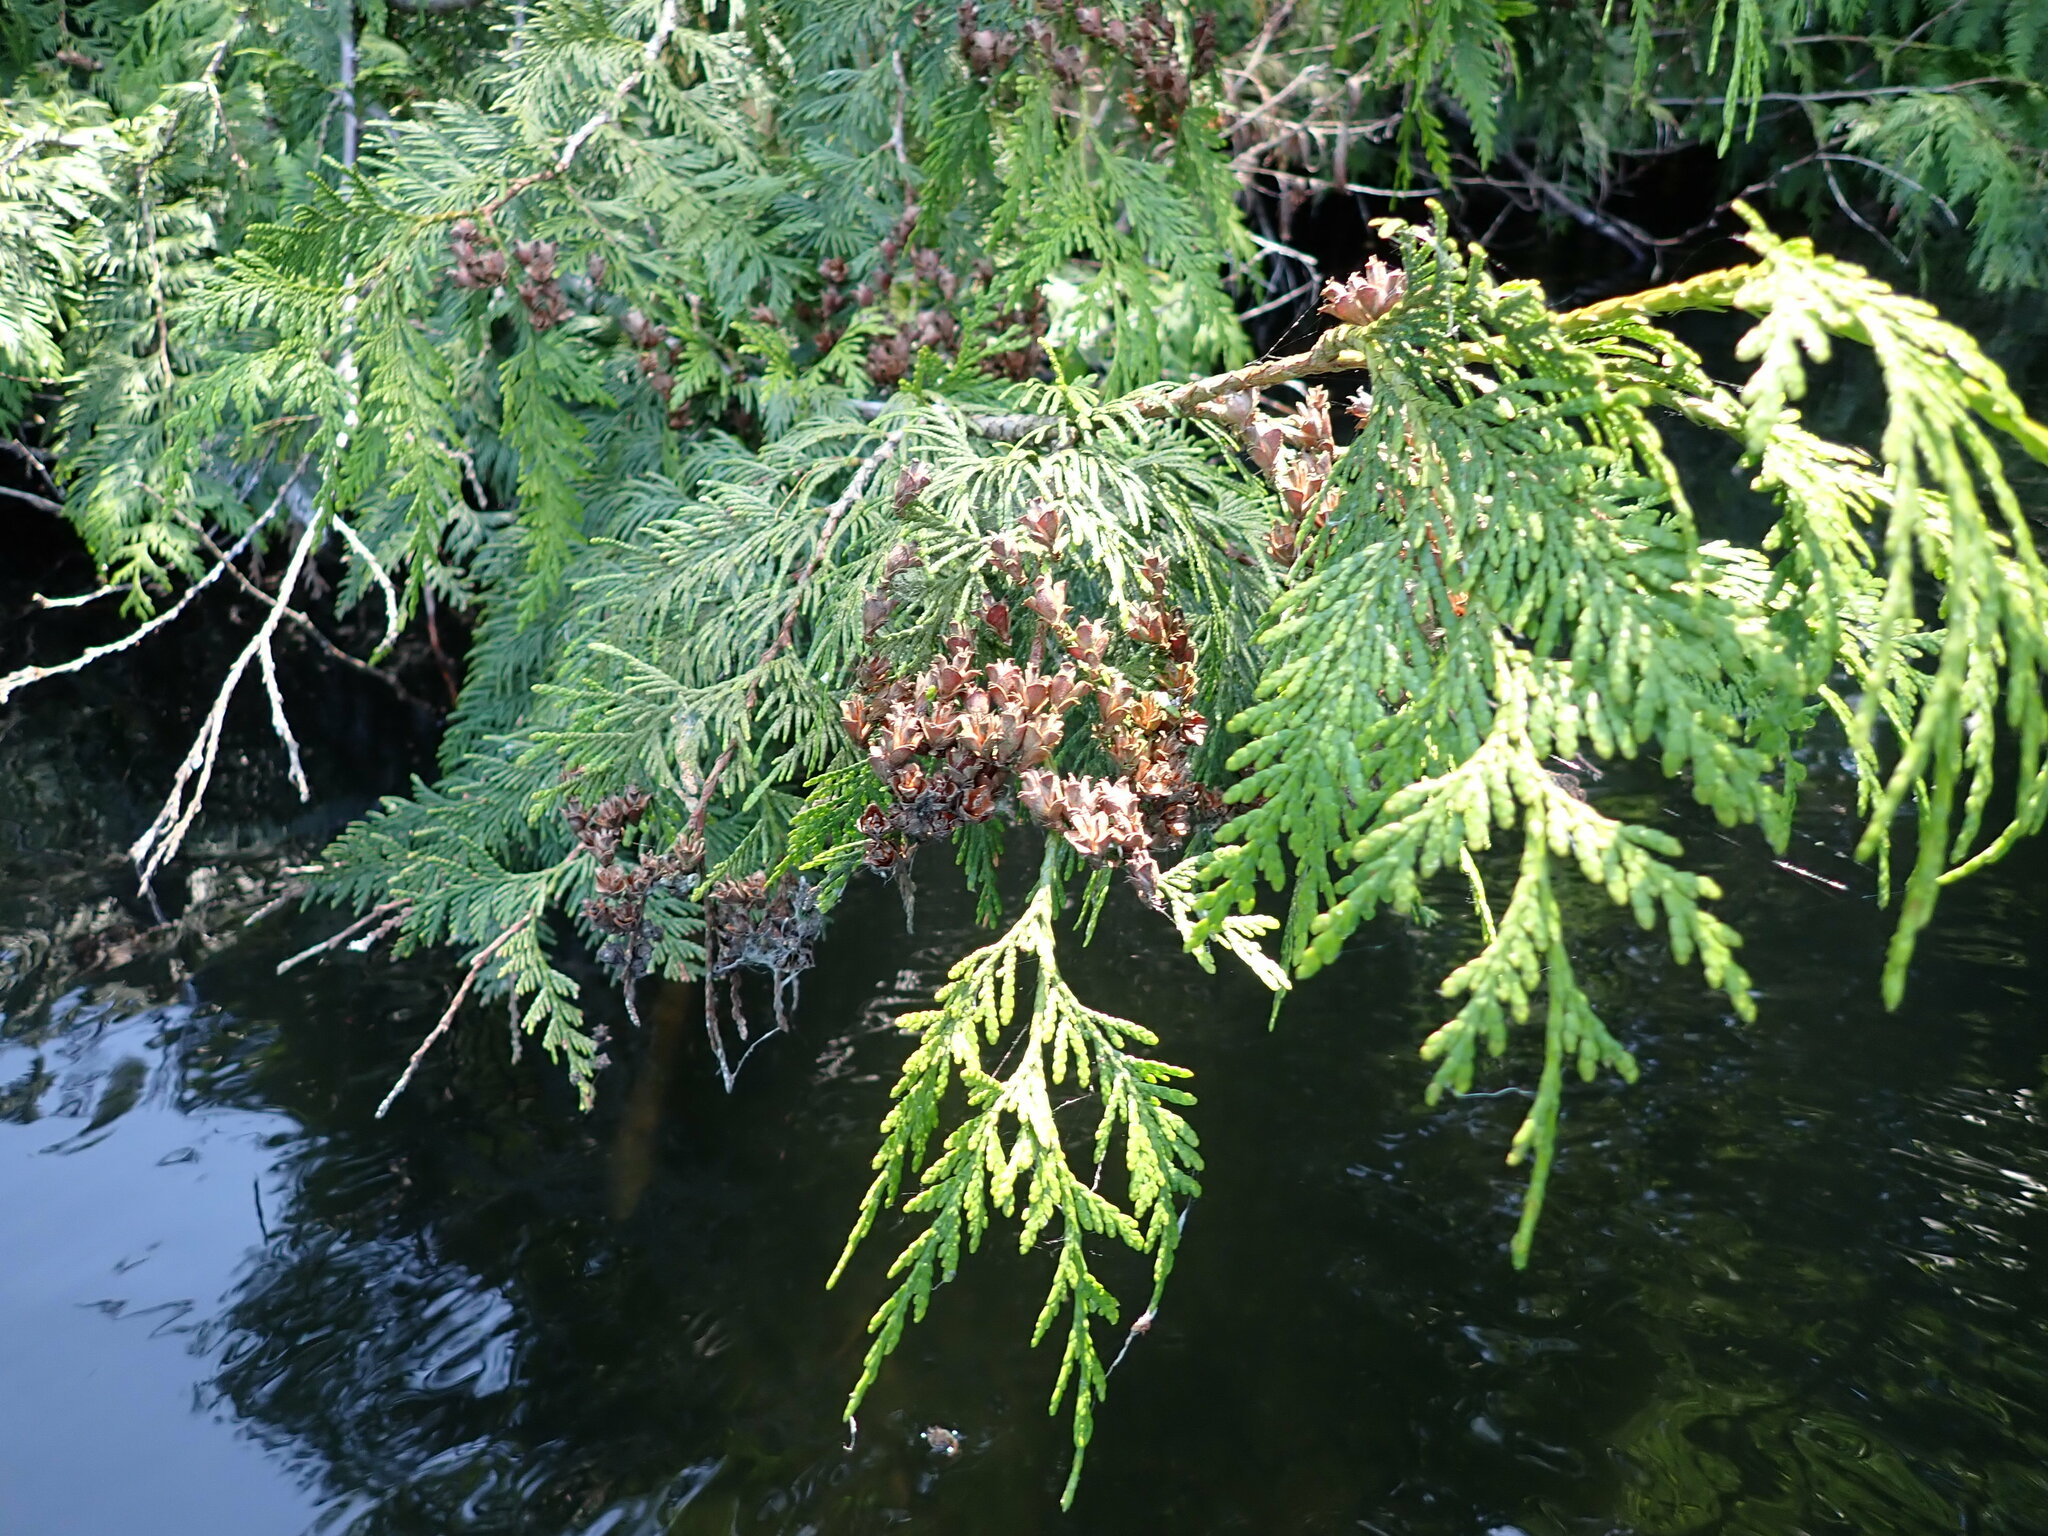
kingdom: Plantae
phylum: Tracheophyta
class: Pinopsida
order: Pinales
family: Cupressaceae
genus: Thuja
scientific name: Thuja plicata
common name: Western red-cedar
